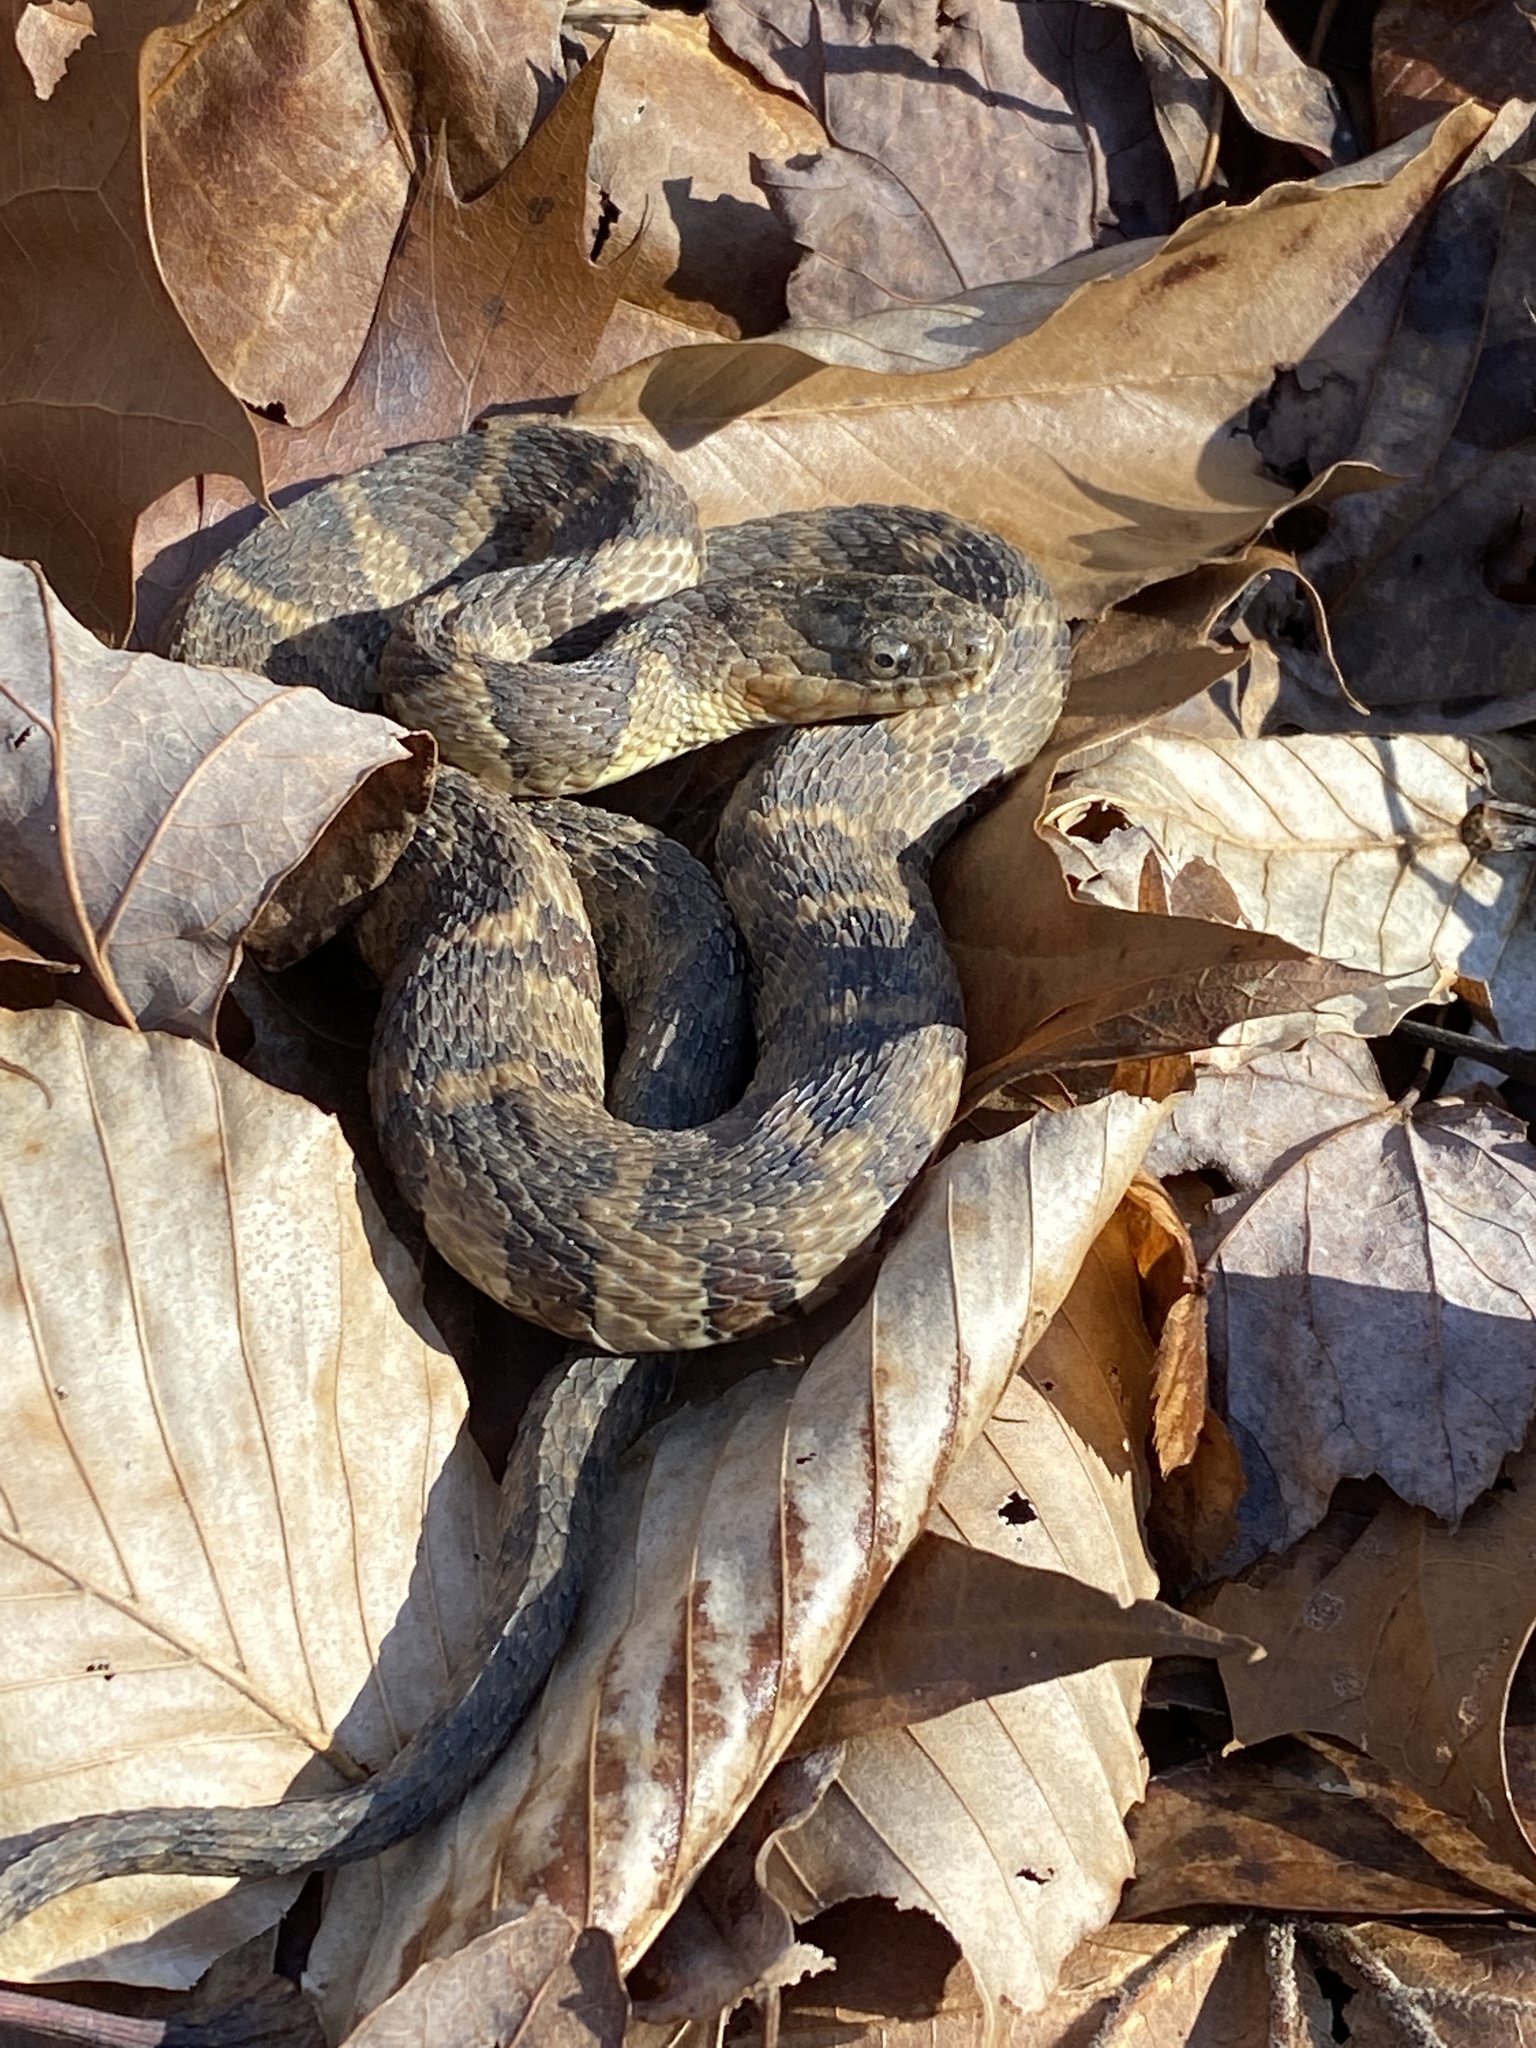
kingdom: Animalia
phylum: Chordata
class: Squamata
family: Colubridae
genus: Nerodia
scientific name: Nerodia sipedon
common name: Northern water snake
